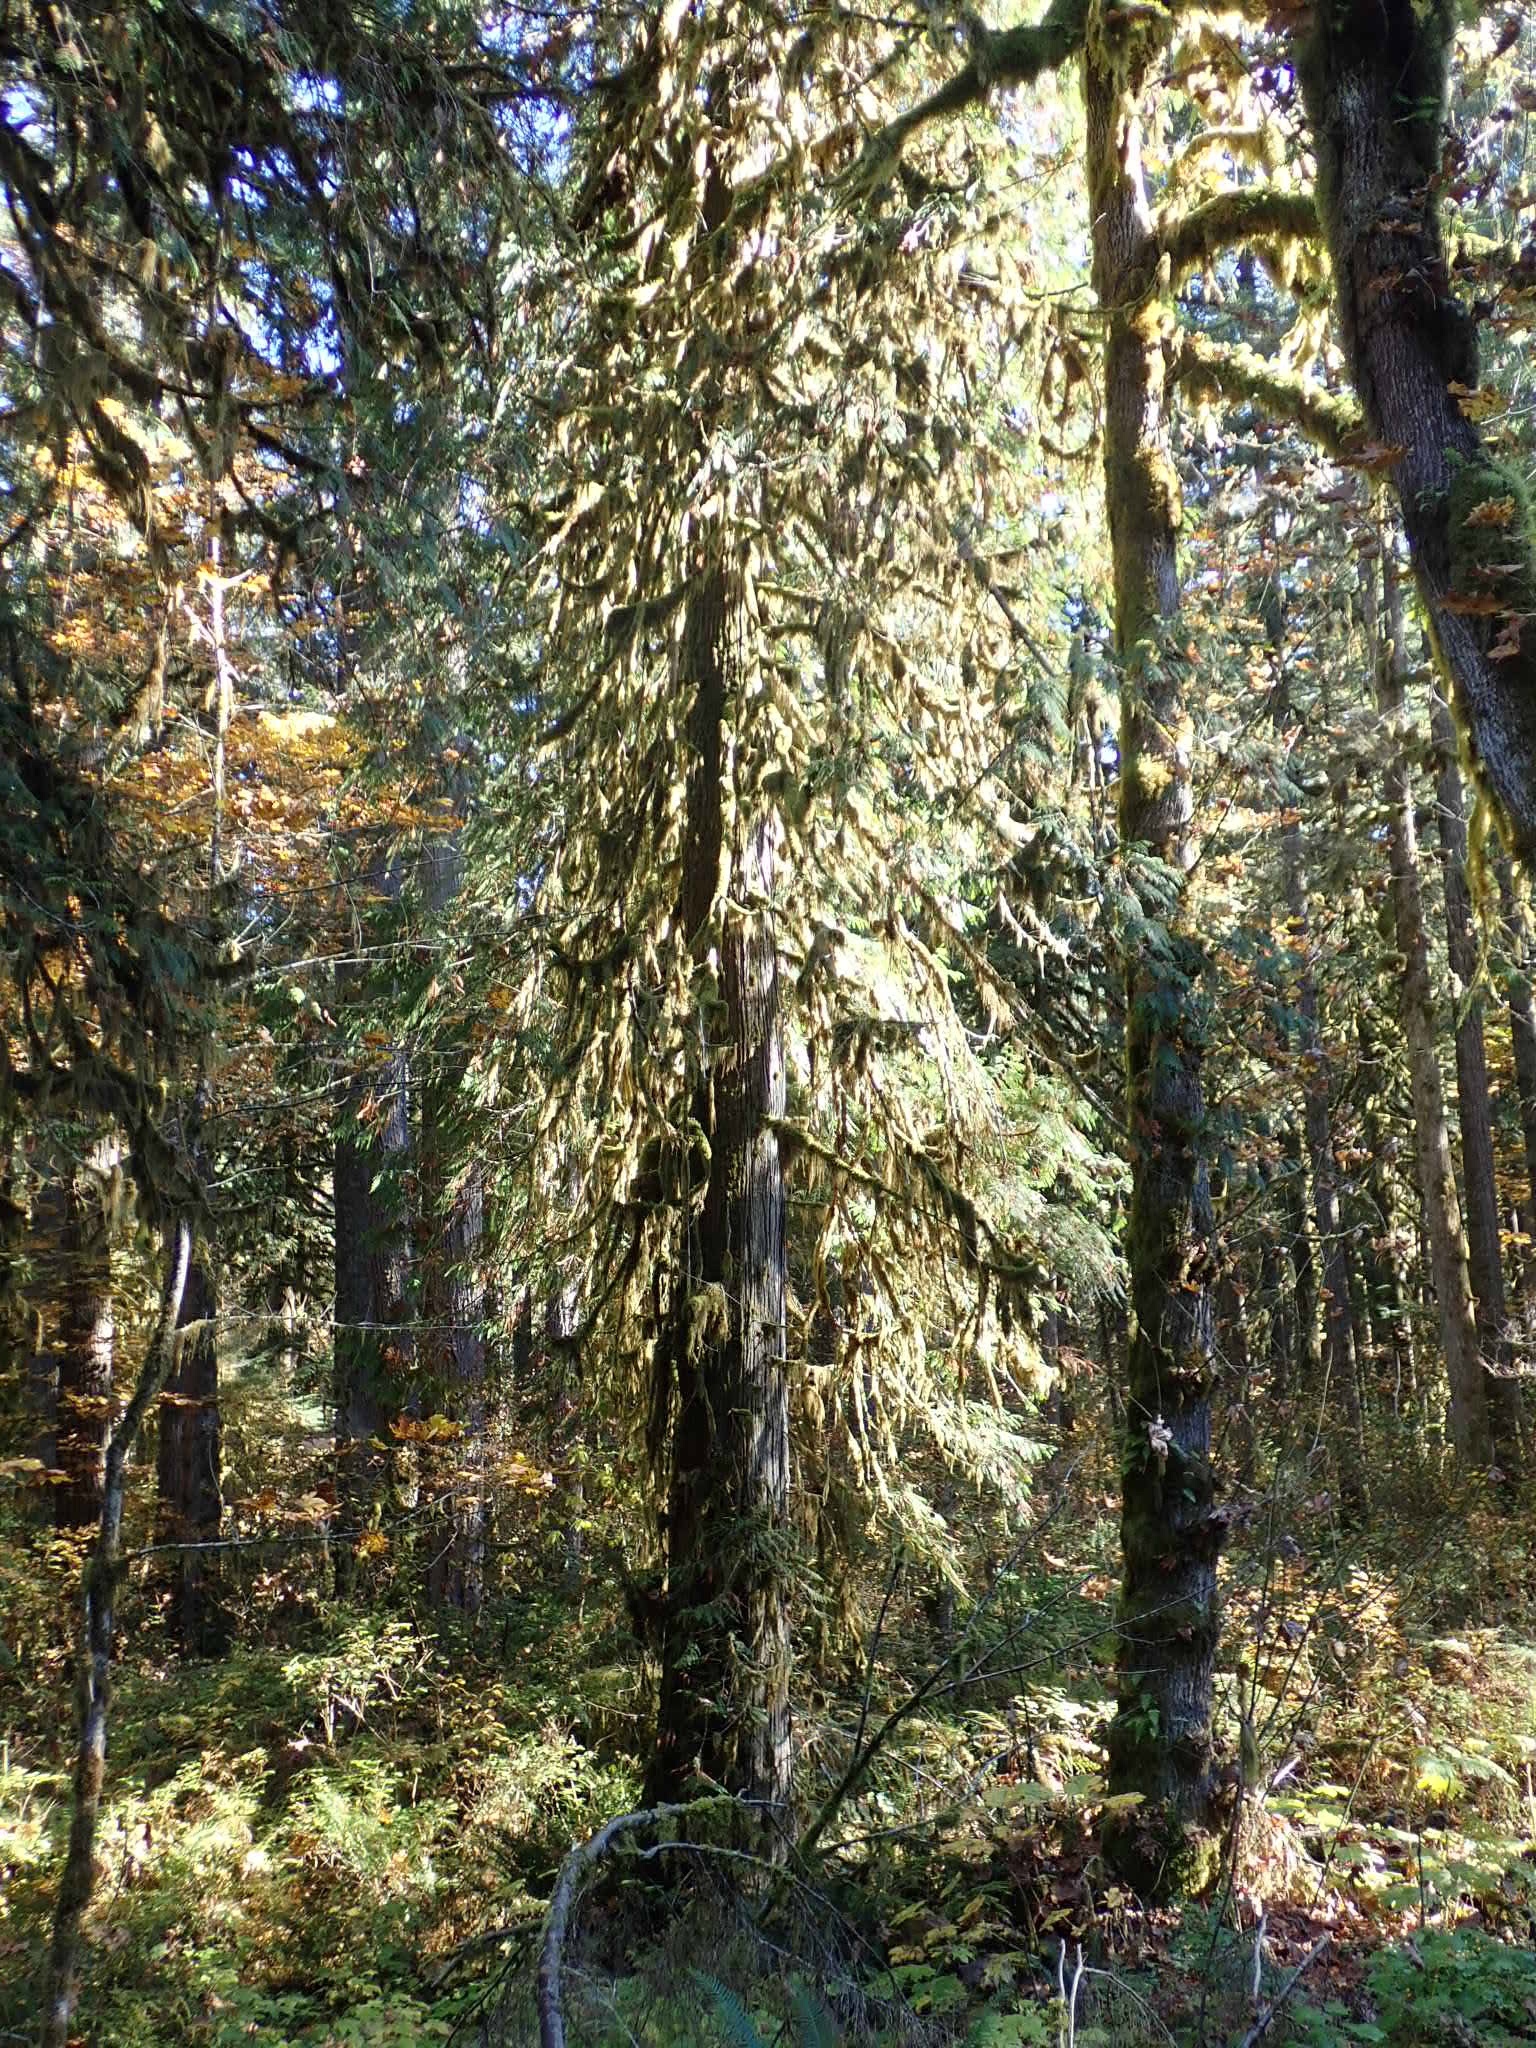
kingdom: Plantae
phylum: Tracheophyta
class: Pinopsida
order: Pinales
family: Cupressaceae
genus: Thuja
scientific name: Thuja plicata
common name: Western red-cedar
